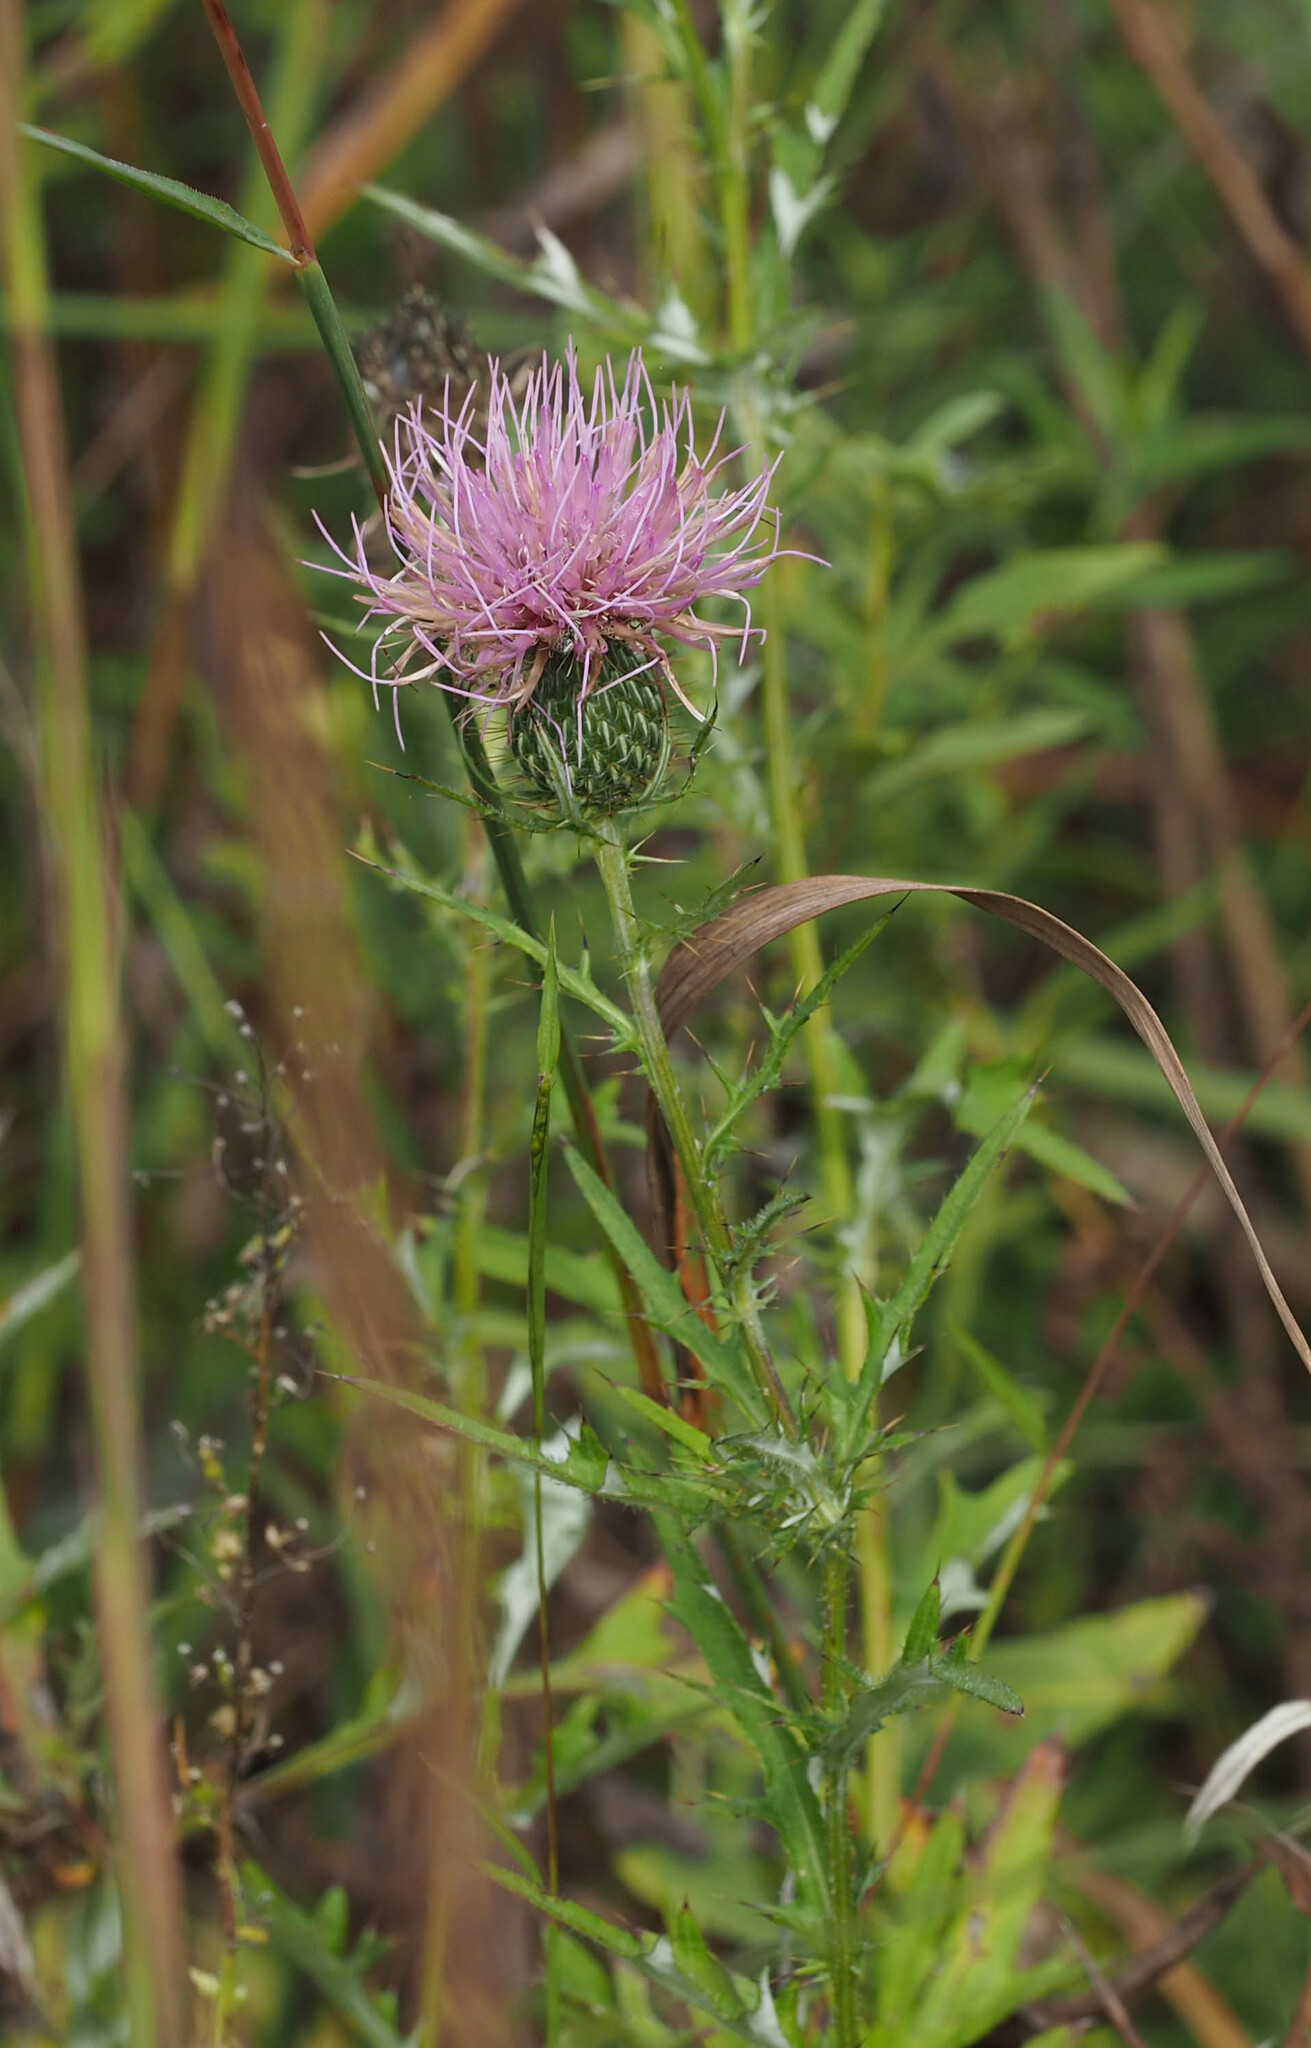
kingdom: Plantae
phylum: Tracheophyta
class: Magnoliopsida
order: Asterales
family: Asteraceae
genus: Cirsium
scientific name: Cirsium discolor
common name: Field thistle
